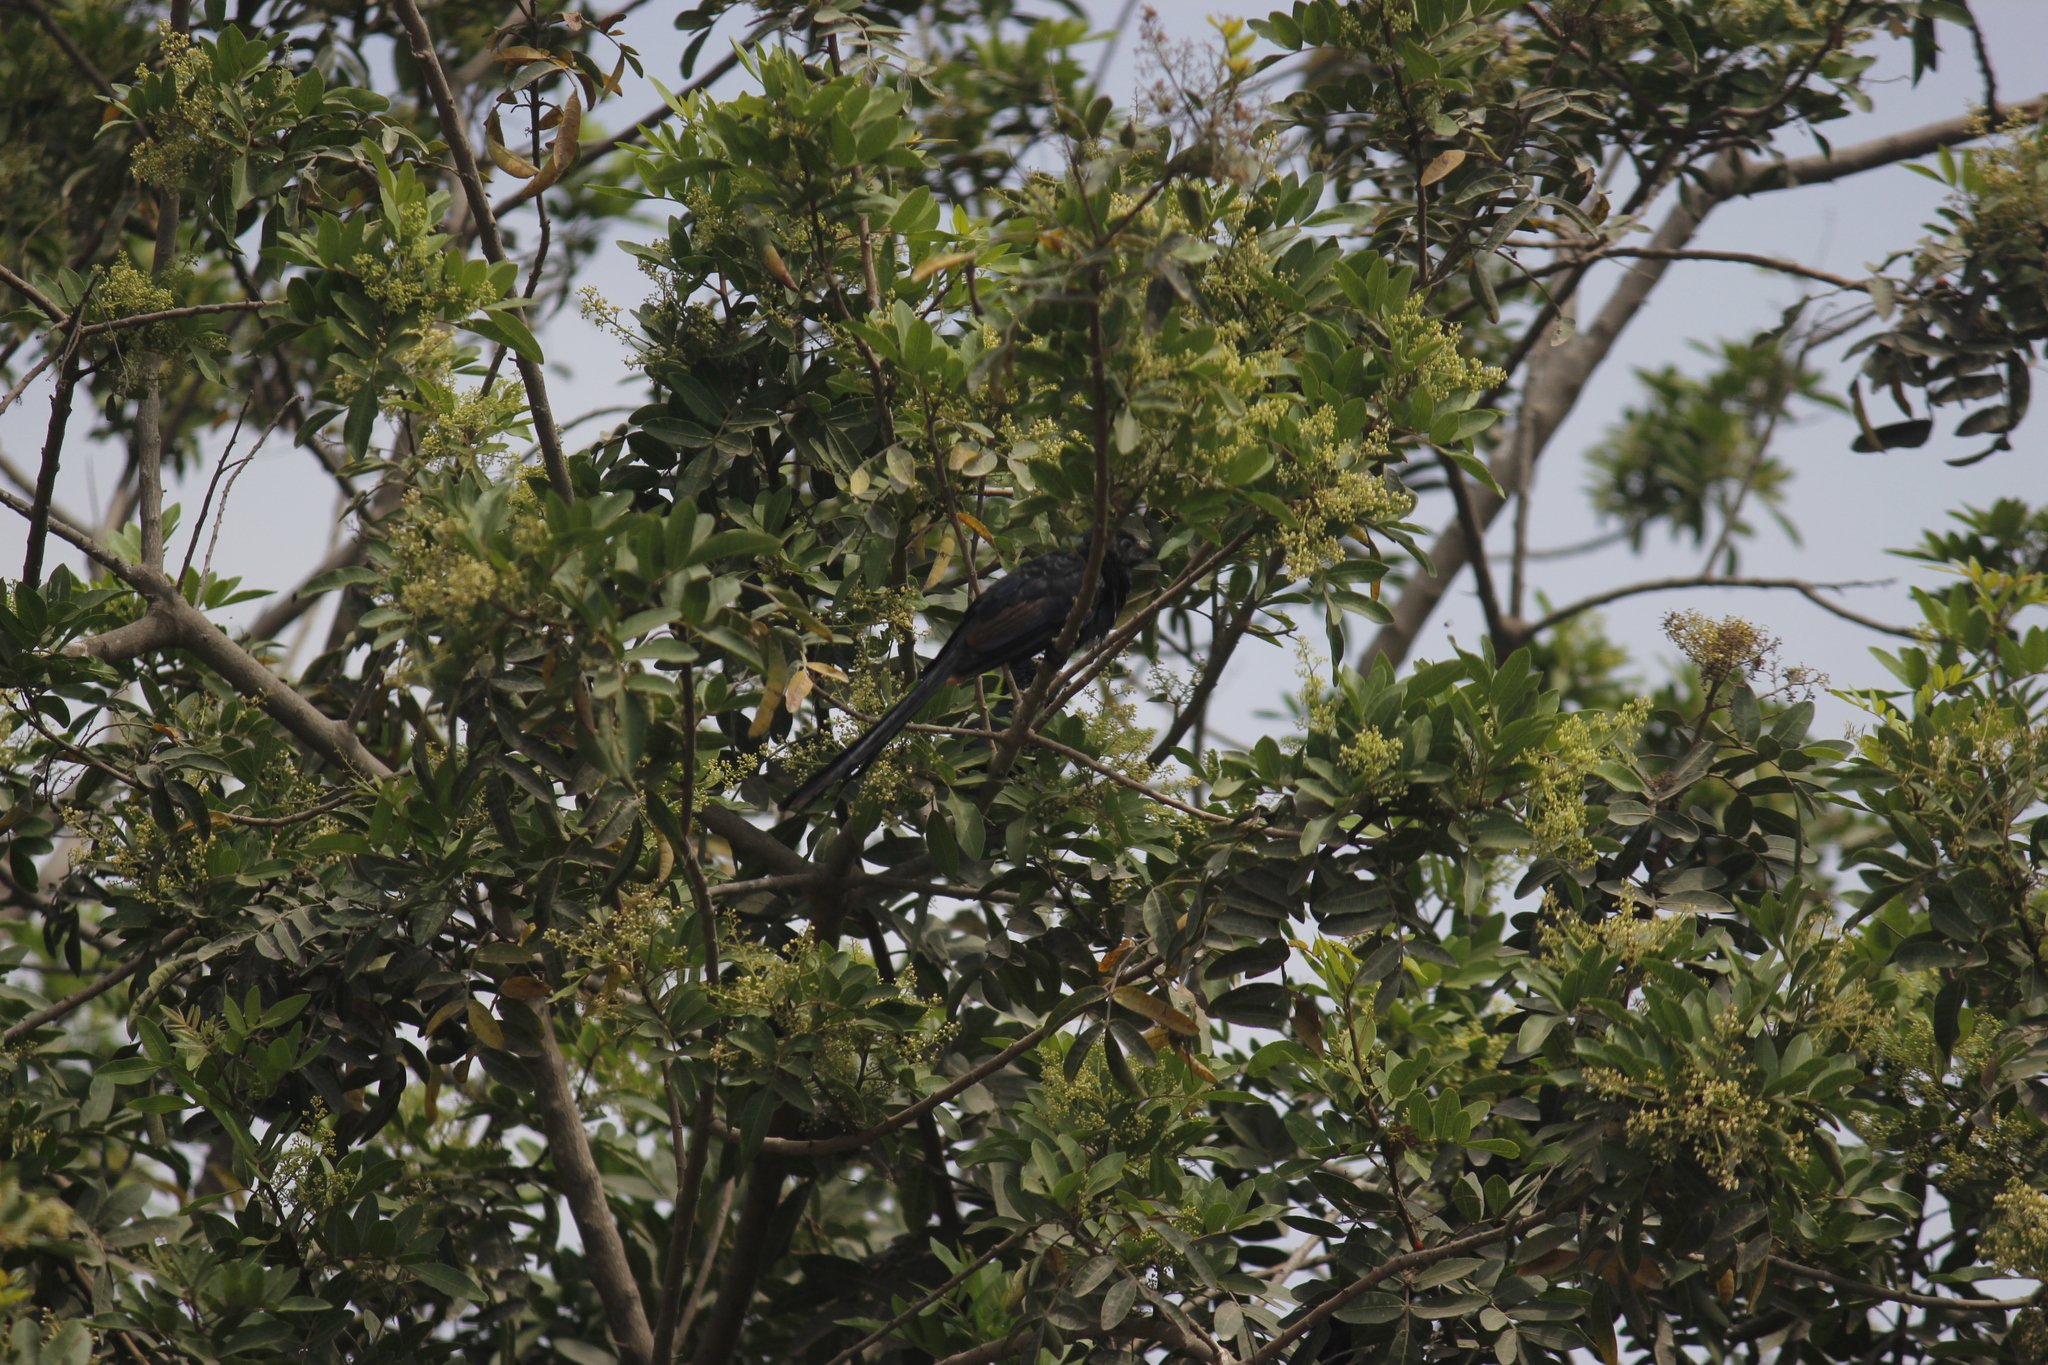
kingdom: Animalia
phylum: Chordata
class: Aves
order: Cuculiformes
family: Cuculidae
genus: Crotophaga
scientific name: Crotophaga sulcirostris
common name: Groove-billed ani
